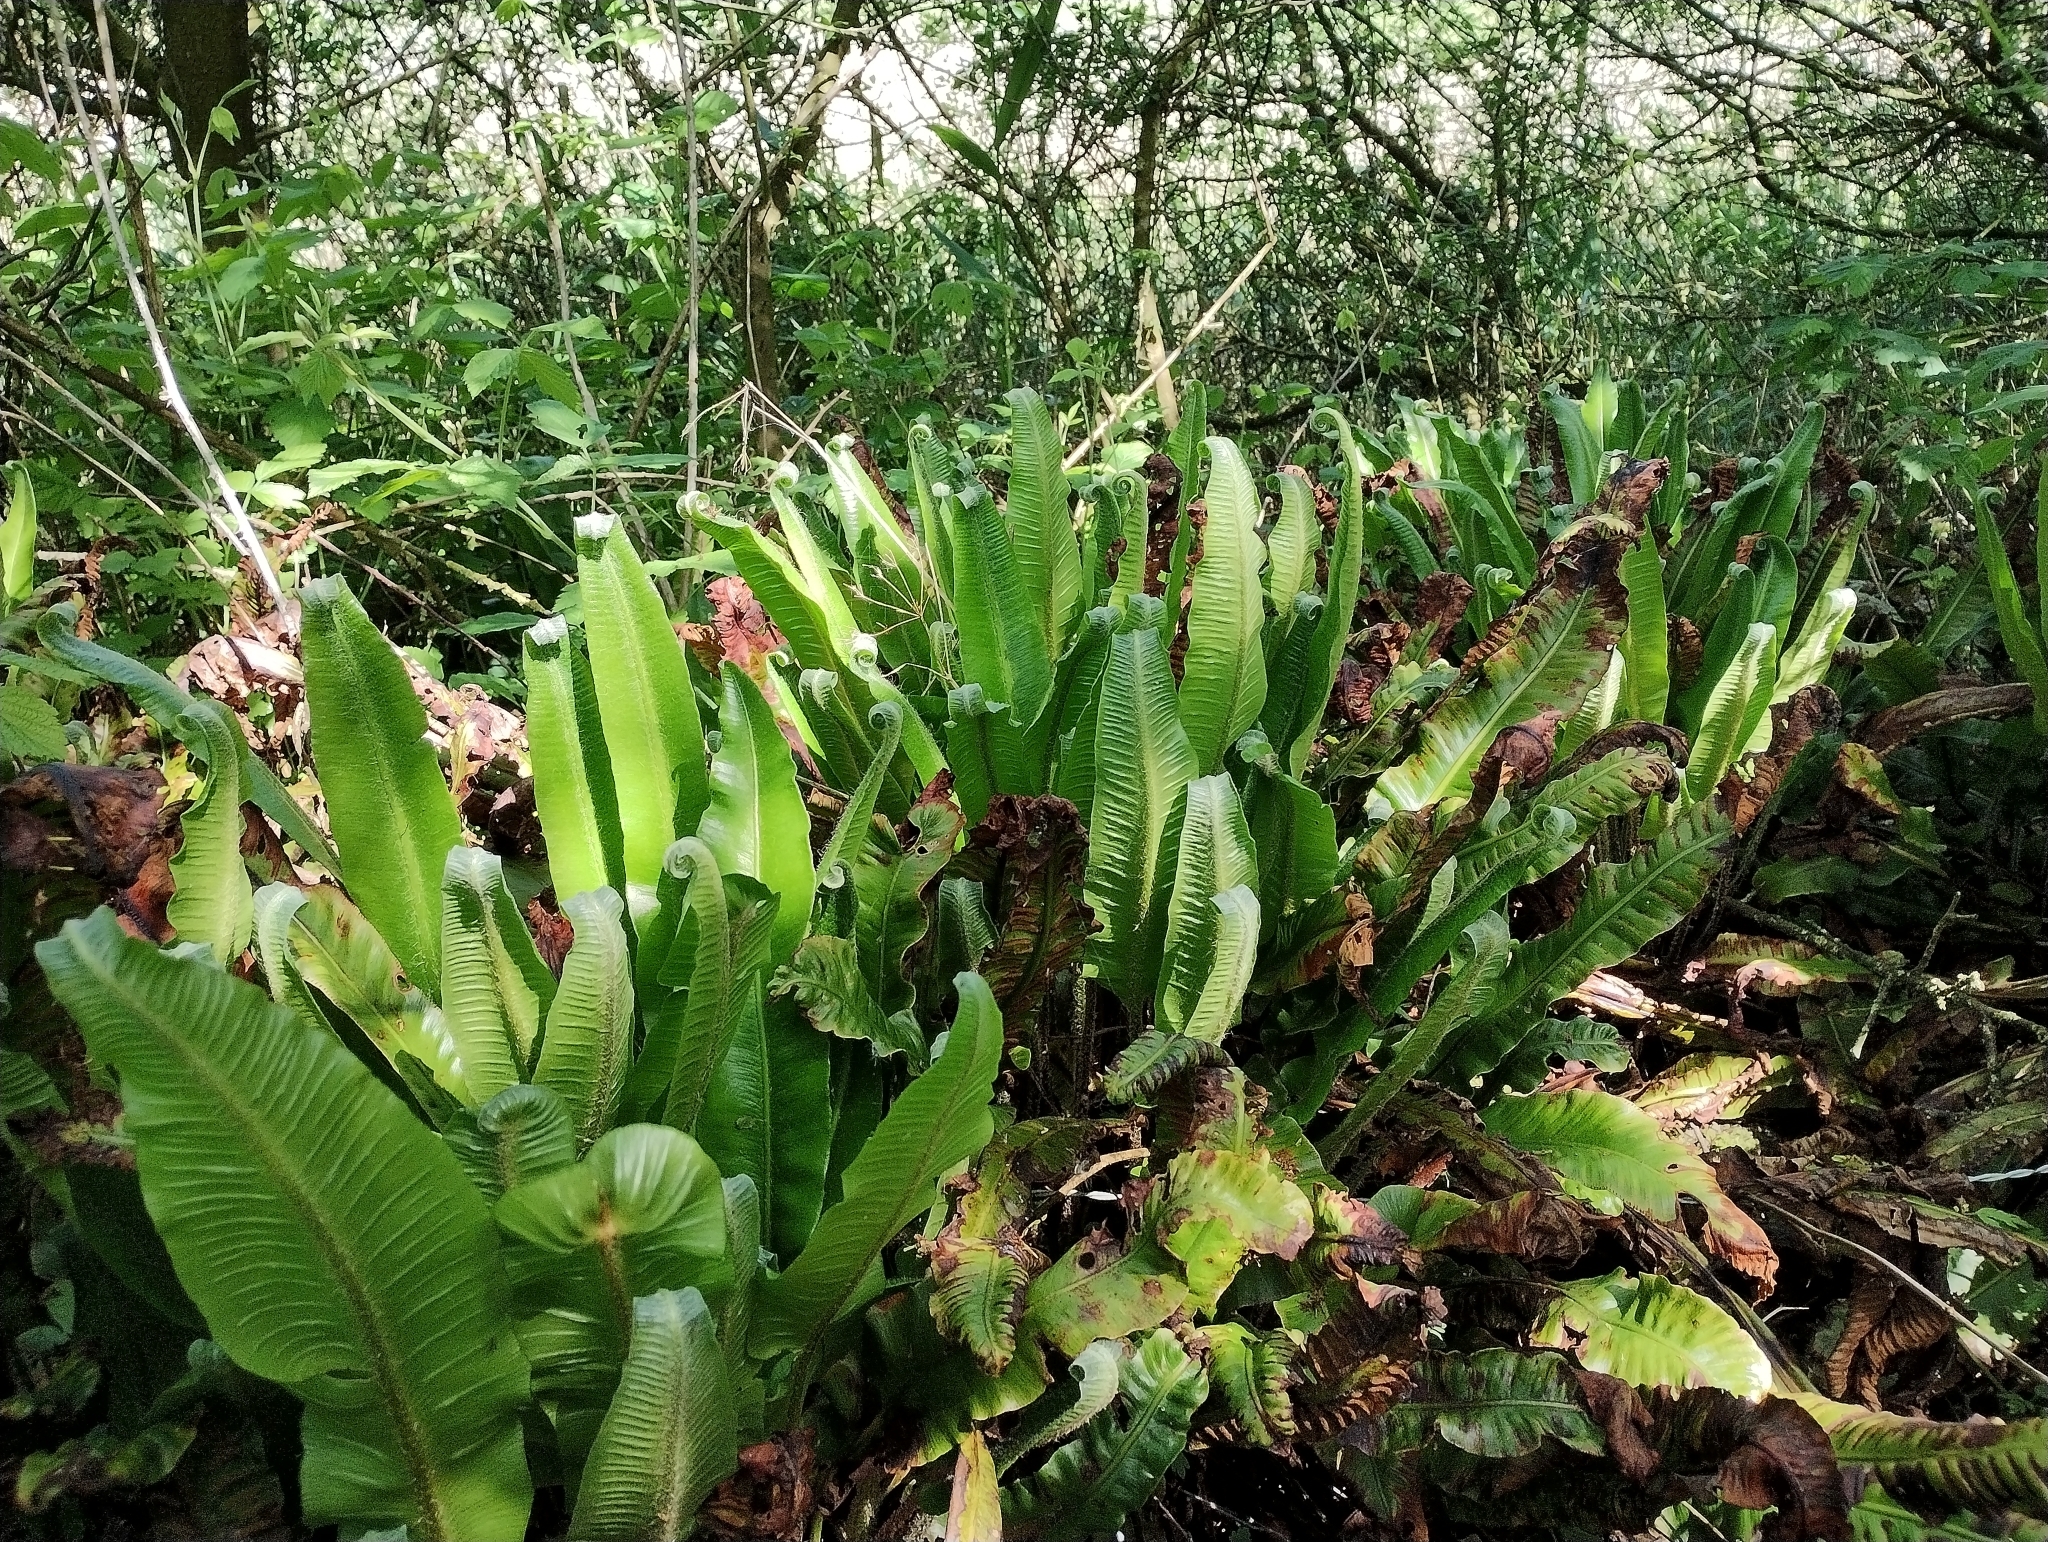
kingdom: Plantae
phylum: Tracheophyta
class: Polypodiopsida
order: Polypodiales
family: Aspleniaceae
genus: Asplenium
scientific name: Asplenium scolopendrium
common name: Hart's-tongue fern
